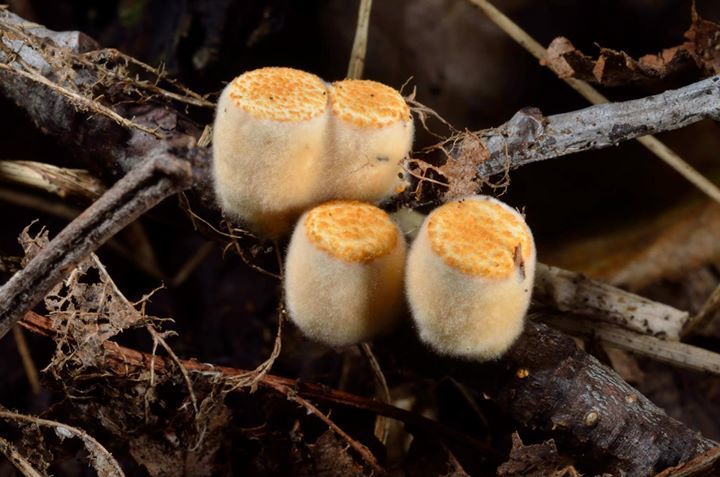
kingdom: Fungi
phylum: Basidiomycota
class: Agaricomycetes
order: Agaricales
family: Nidulariaceae
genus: Crucibulum
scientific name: Crucibulum laeve
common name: Common bird's nest
